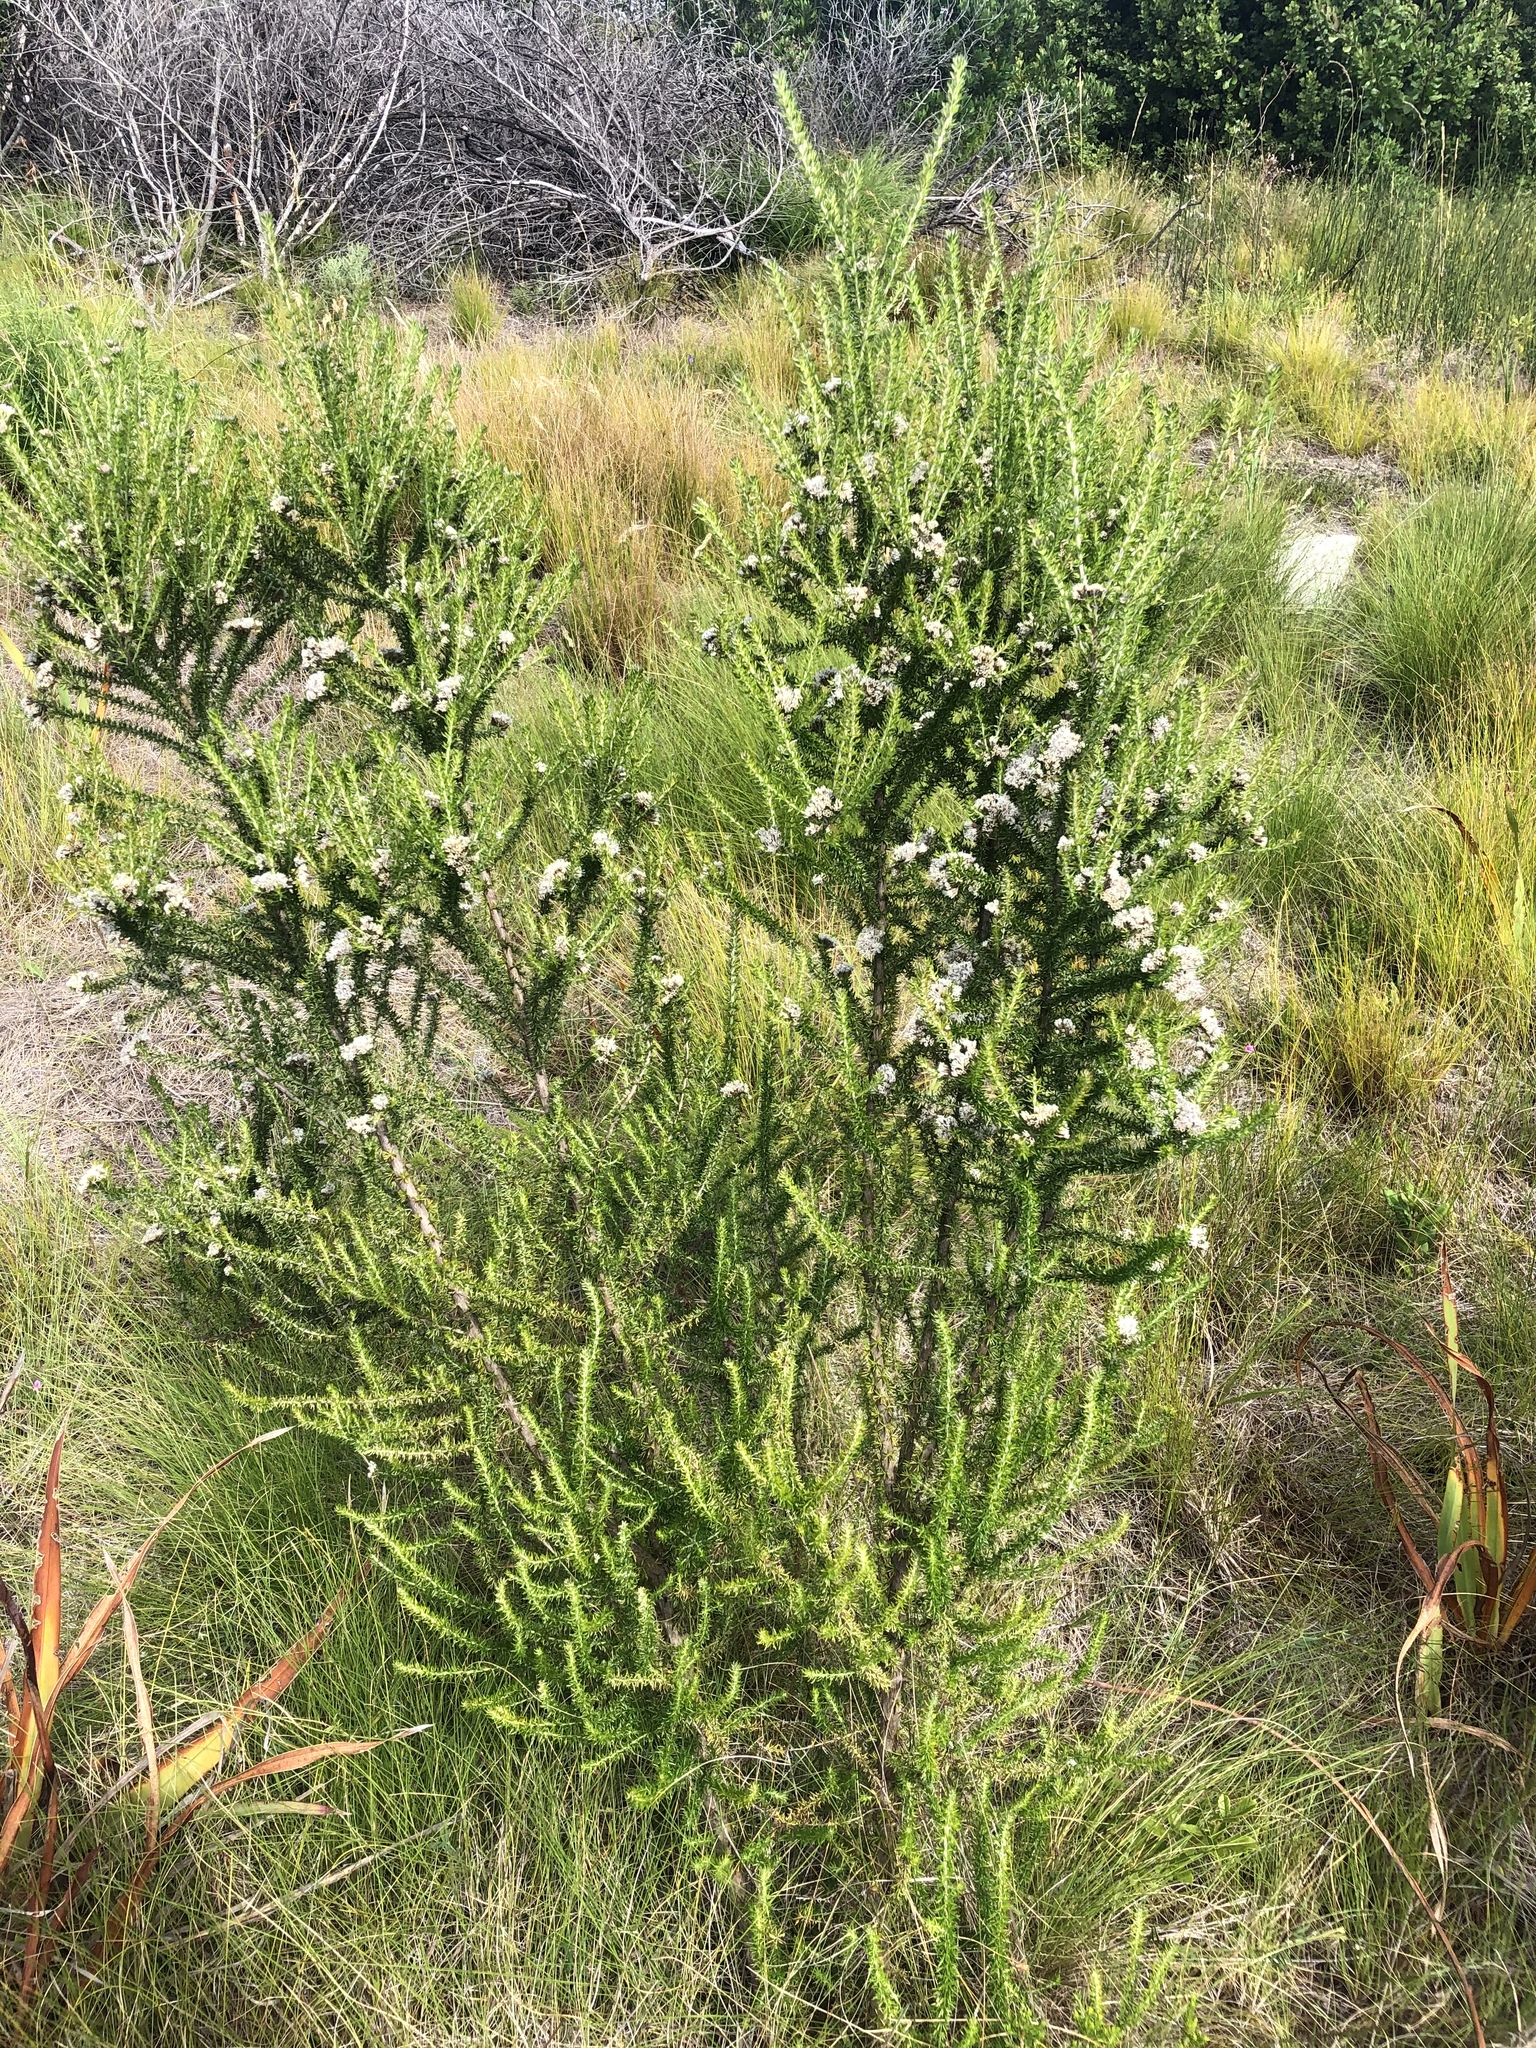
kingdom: Plantae
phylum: Tracheophyta
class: Magnoliopsida
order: Asterales
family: Asteraceae
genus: Metalasia
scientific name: Metalasia densa
